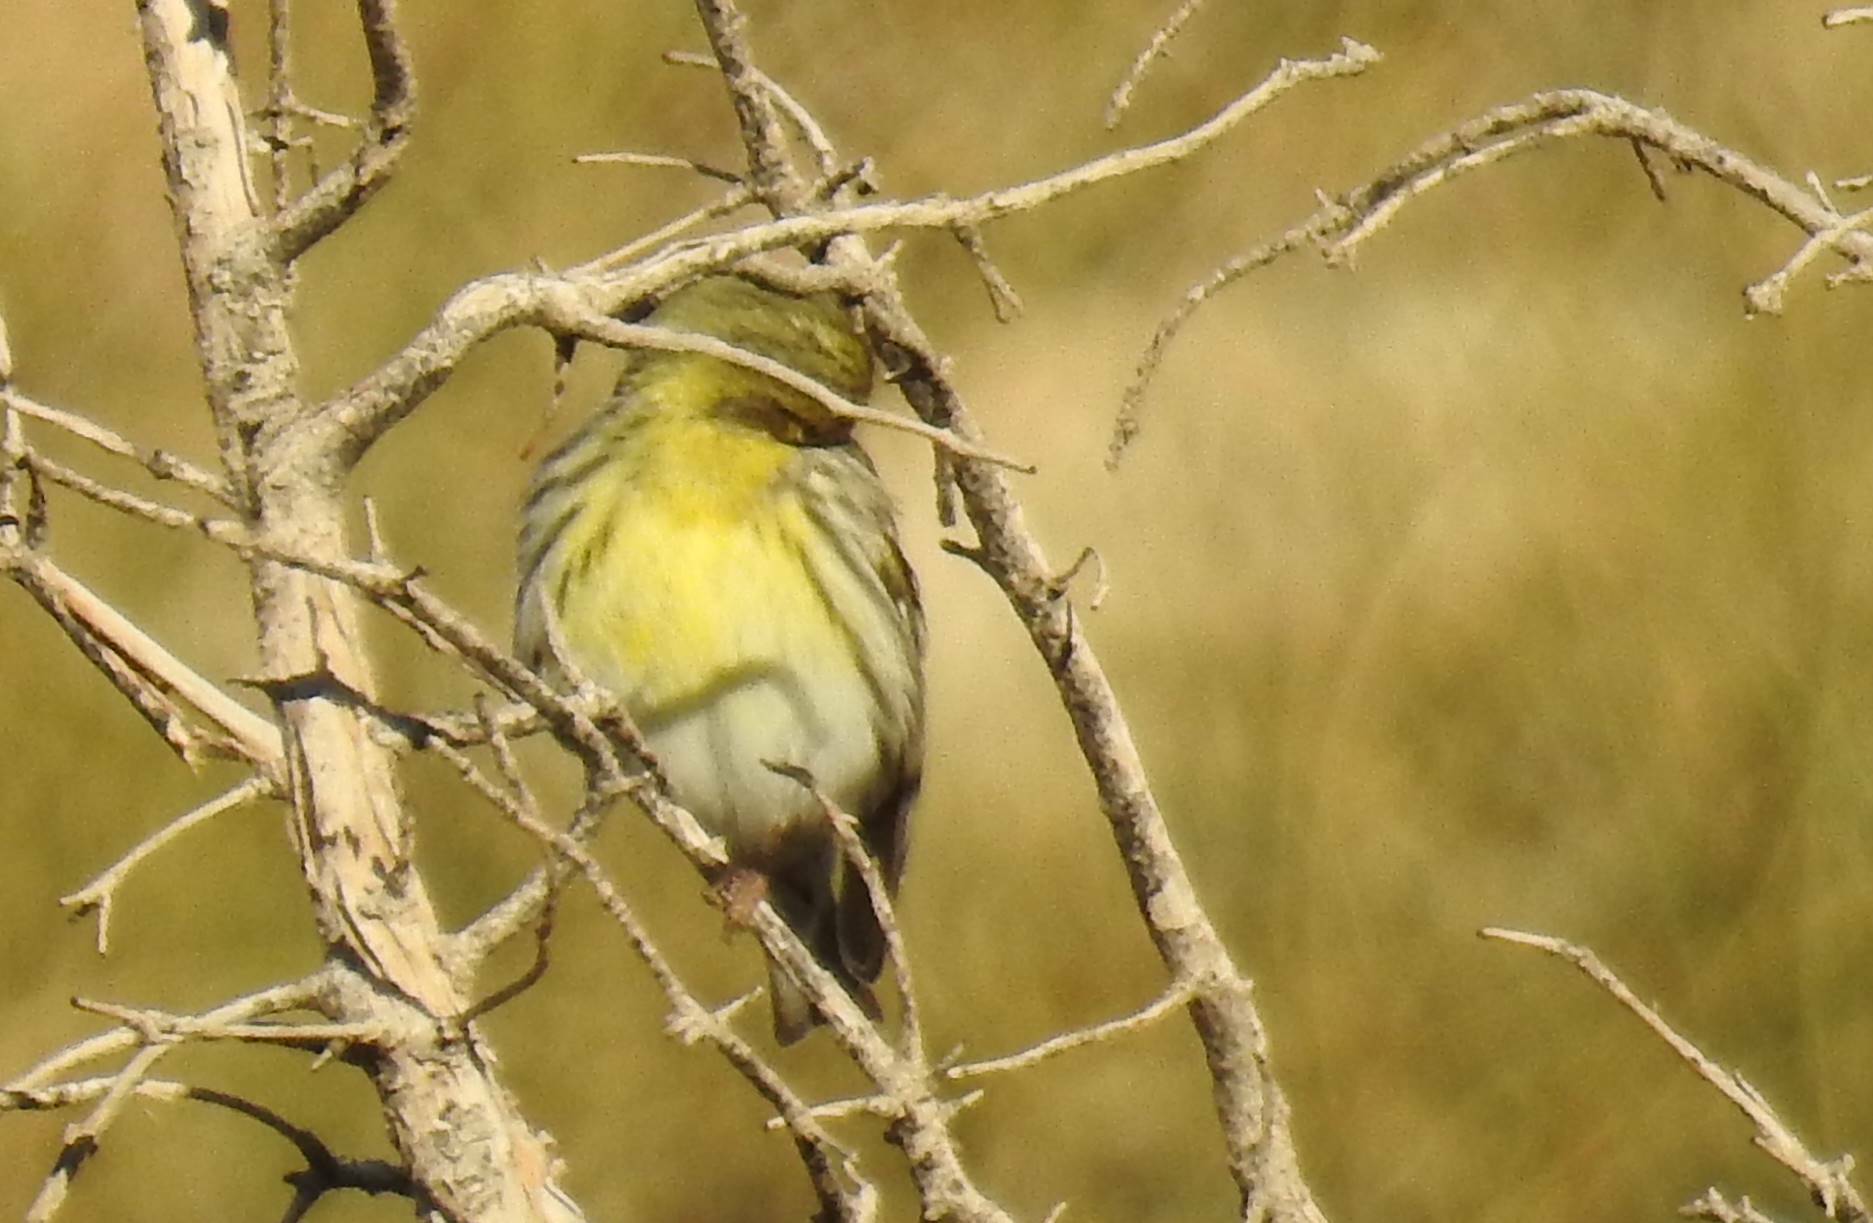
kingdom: Animalia
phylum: Chordata
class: Aves
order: Passeriformes
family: Fringillidae
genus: Serinus
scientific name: Serinus serinus
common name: European serin
